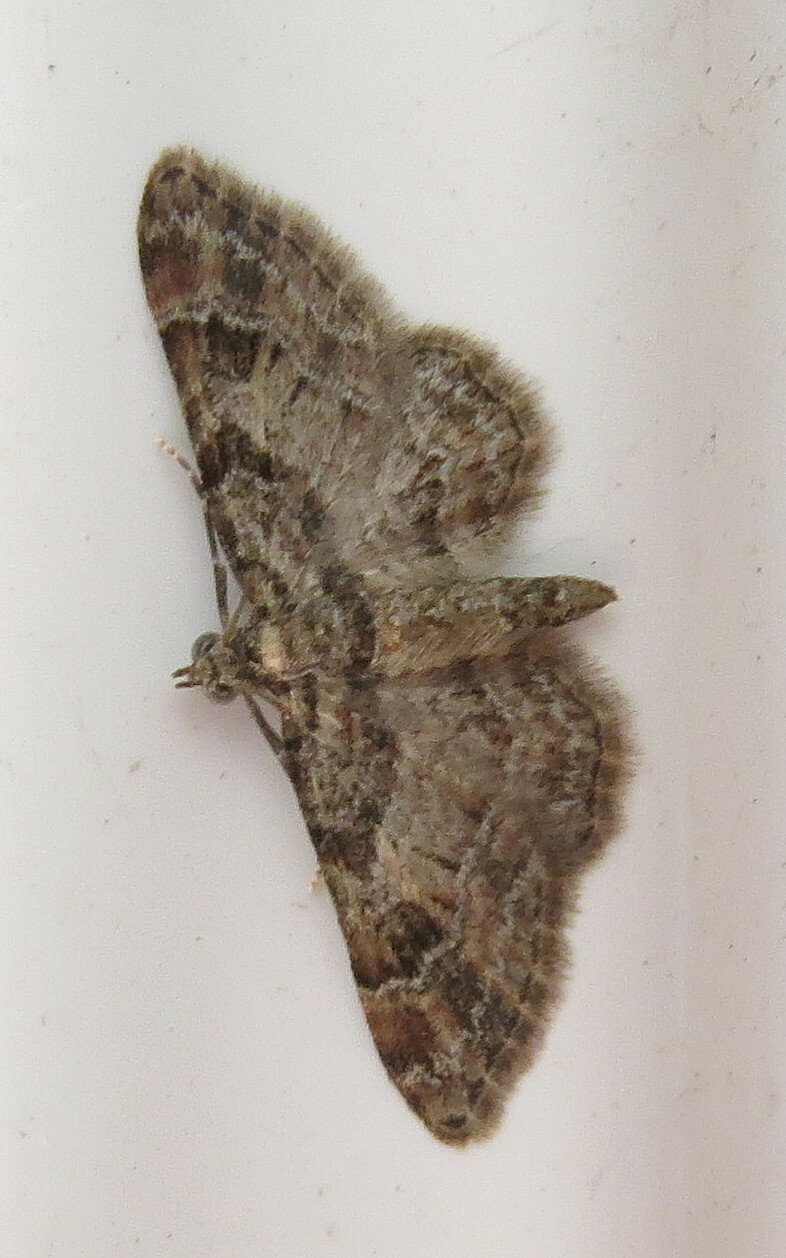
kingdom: Animalia
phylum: Arthropoda
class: Insecta
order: Lepidoptera
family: Geometridae
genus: Gymnoscelis
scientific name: Gymnoscelis rufifasciata
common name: Double-striped pug
